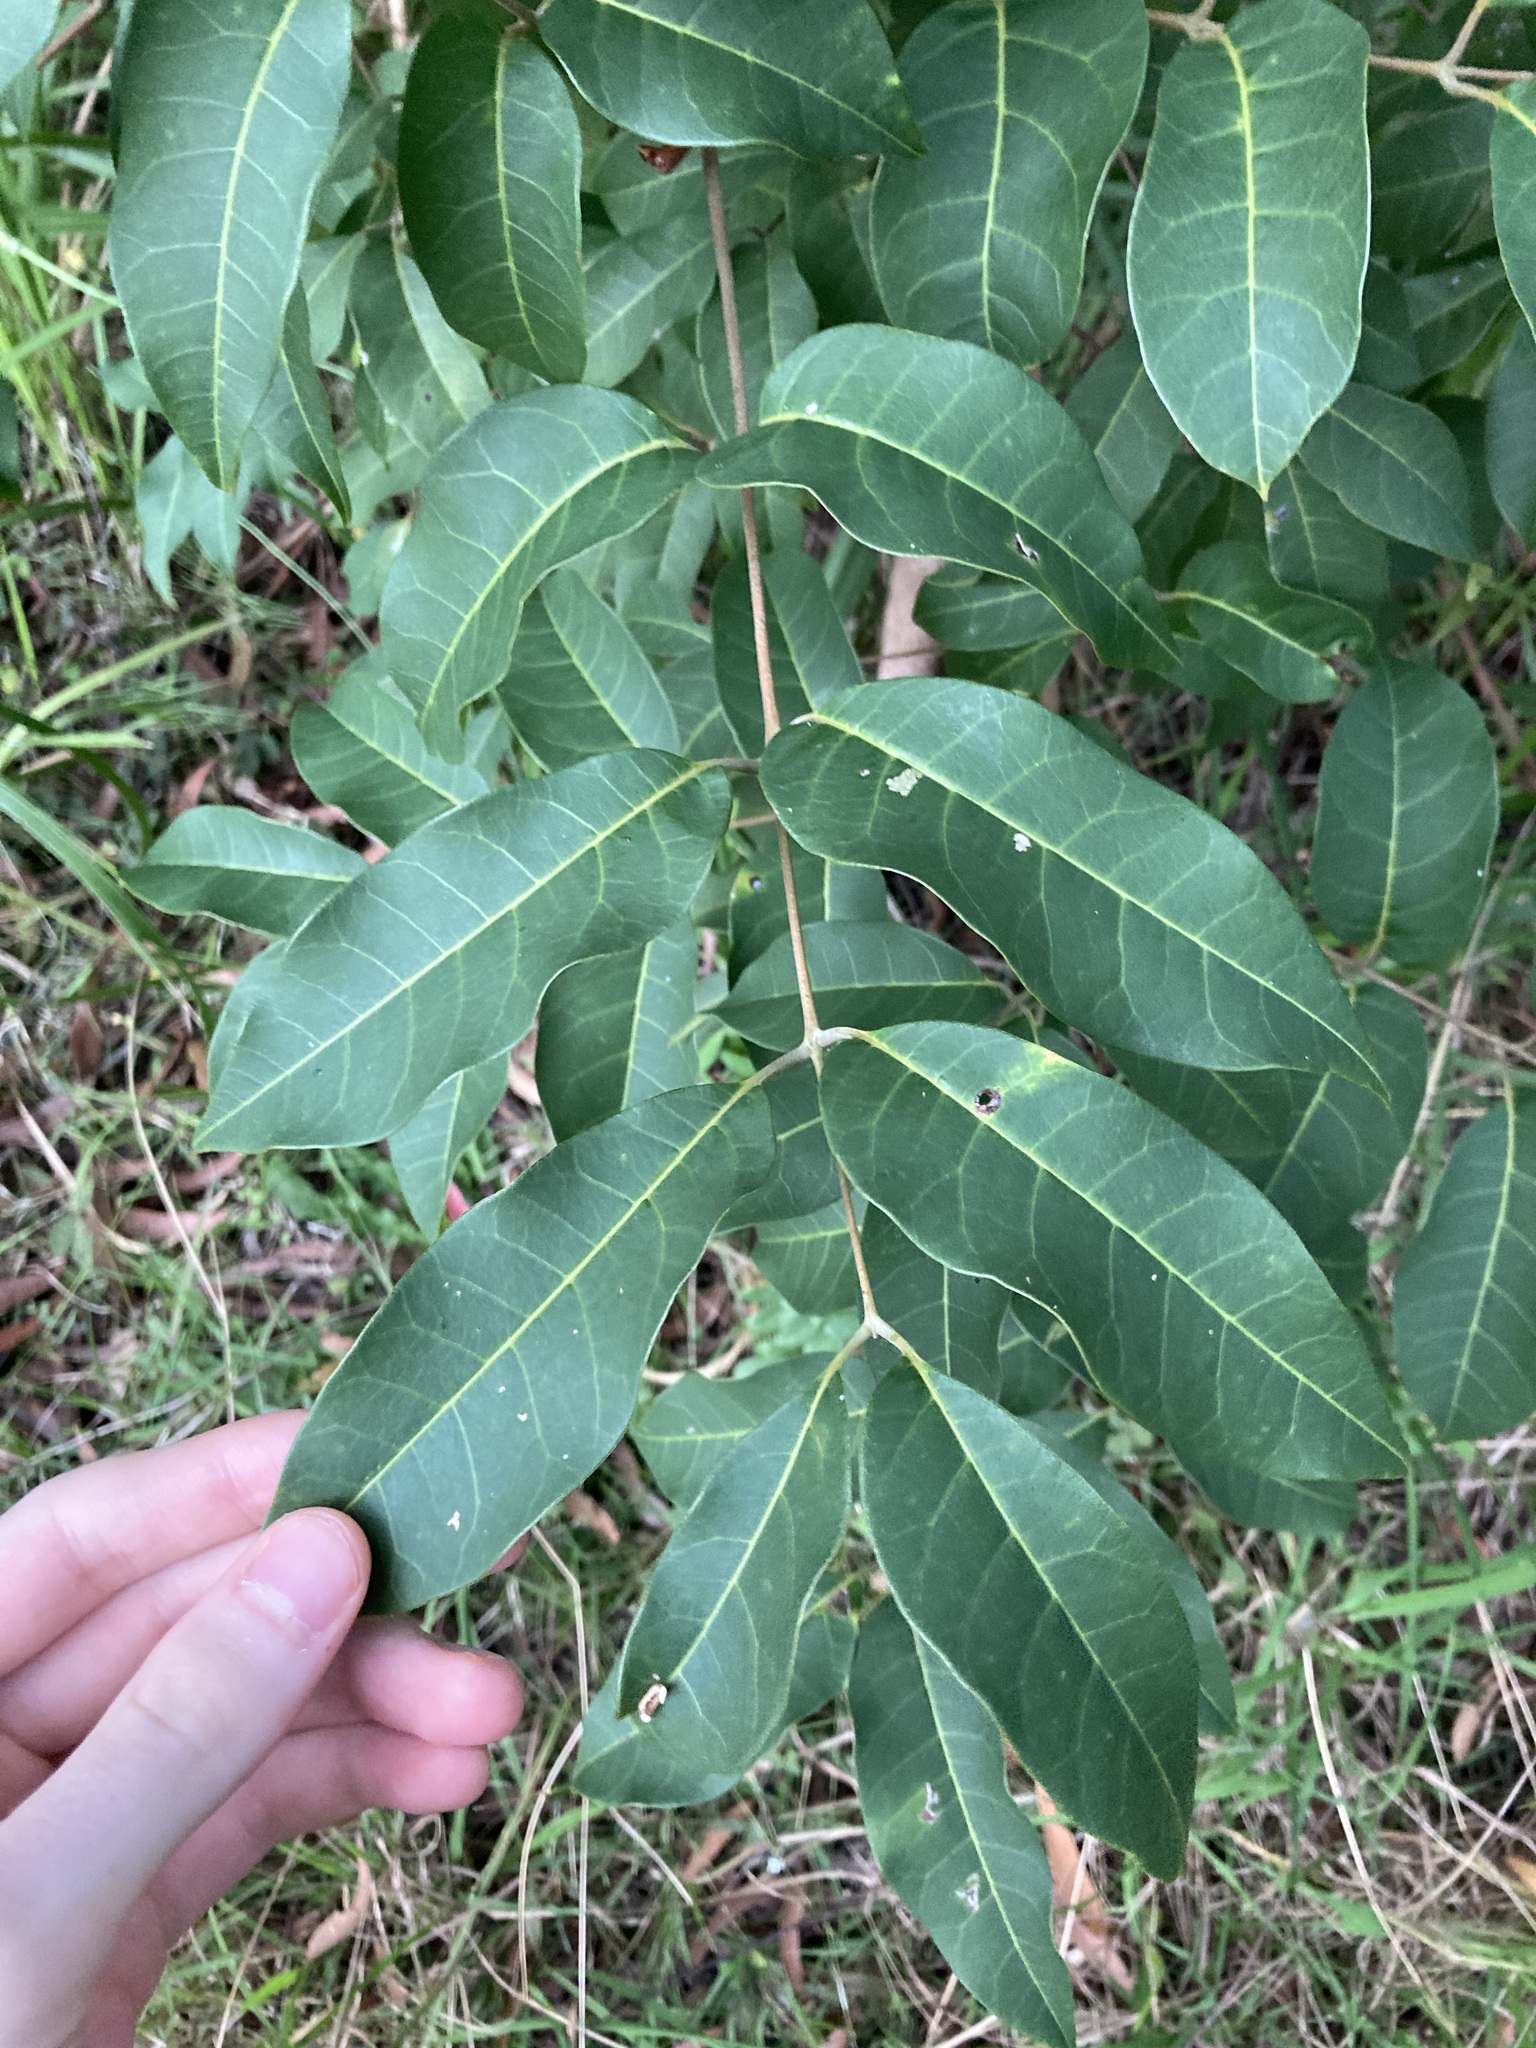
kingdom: Plantae
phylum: Tracheophyta
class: Magnoliopsida
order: Sapindales
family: Anacardiaceae
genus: Euroschinus
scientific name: Euroschinus falcatus
